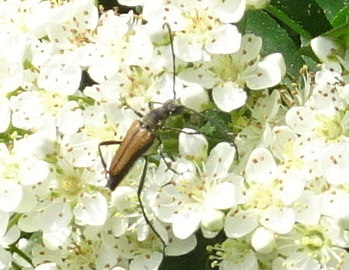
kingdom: Animalia
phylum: Arthropoda
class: Insecta
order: Coleoptera
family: Cerambycidae
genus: Anastrangalia
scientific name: Anastrangalia dubia
